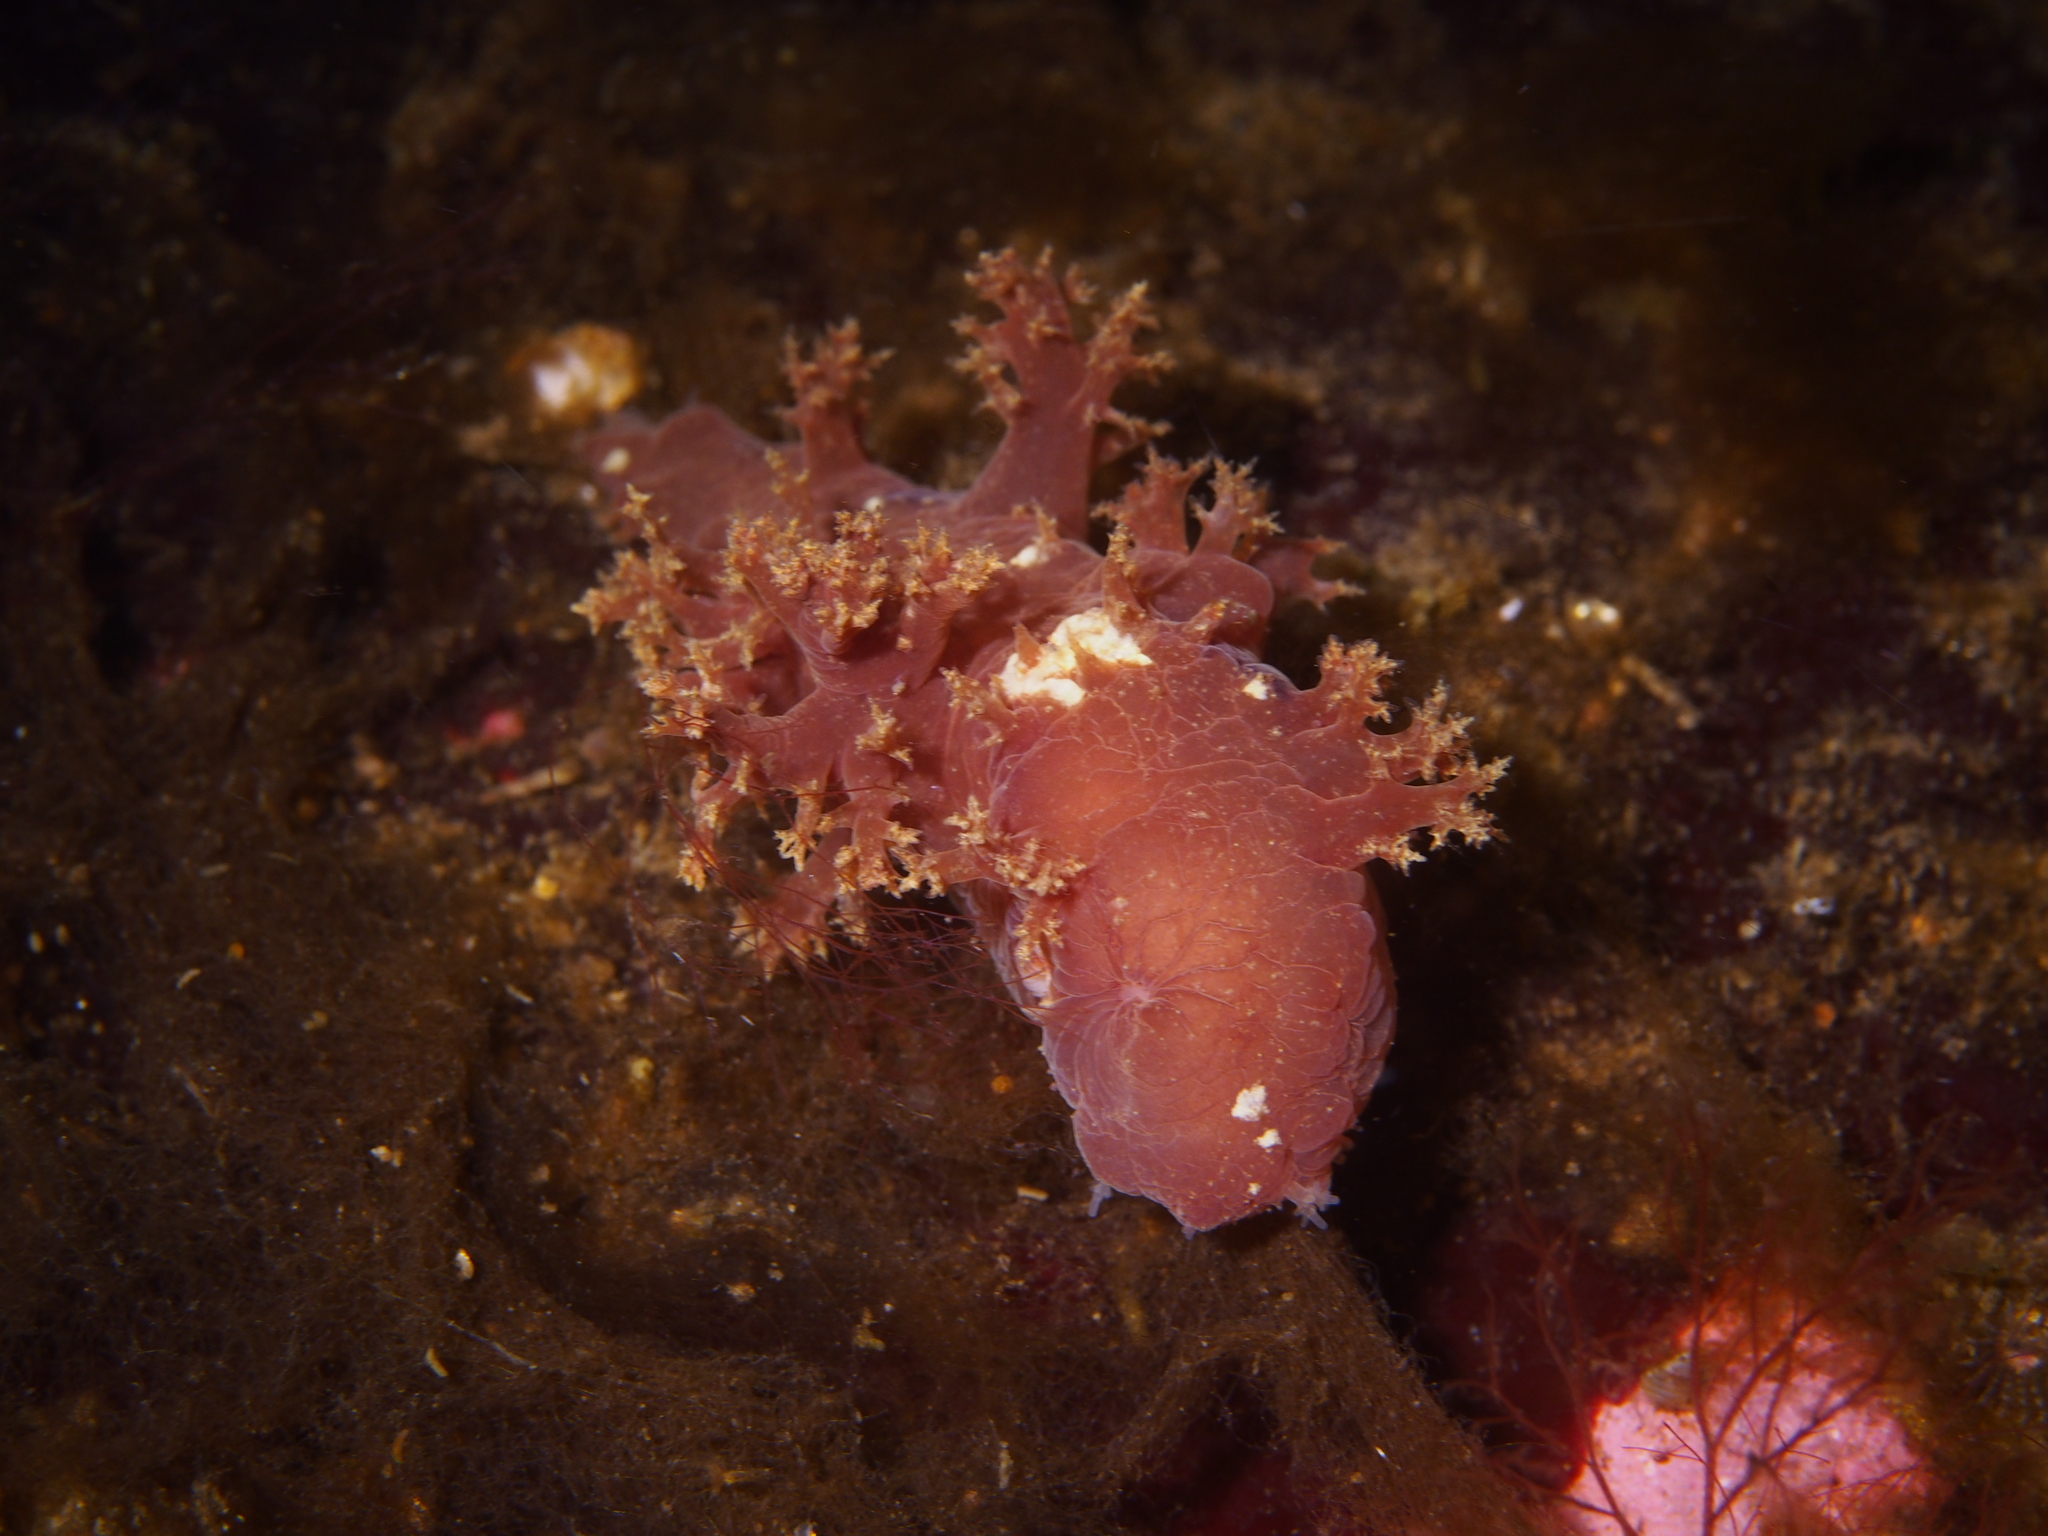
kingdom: Animalia
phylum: Mollusca
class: Gastropoda
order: Nudibranchia
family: Dendronotidae
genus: Dendronotus
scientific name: Dendronotus lacteus
